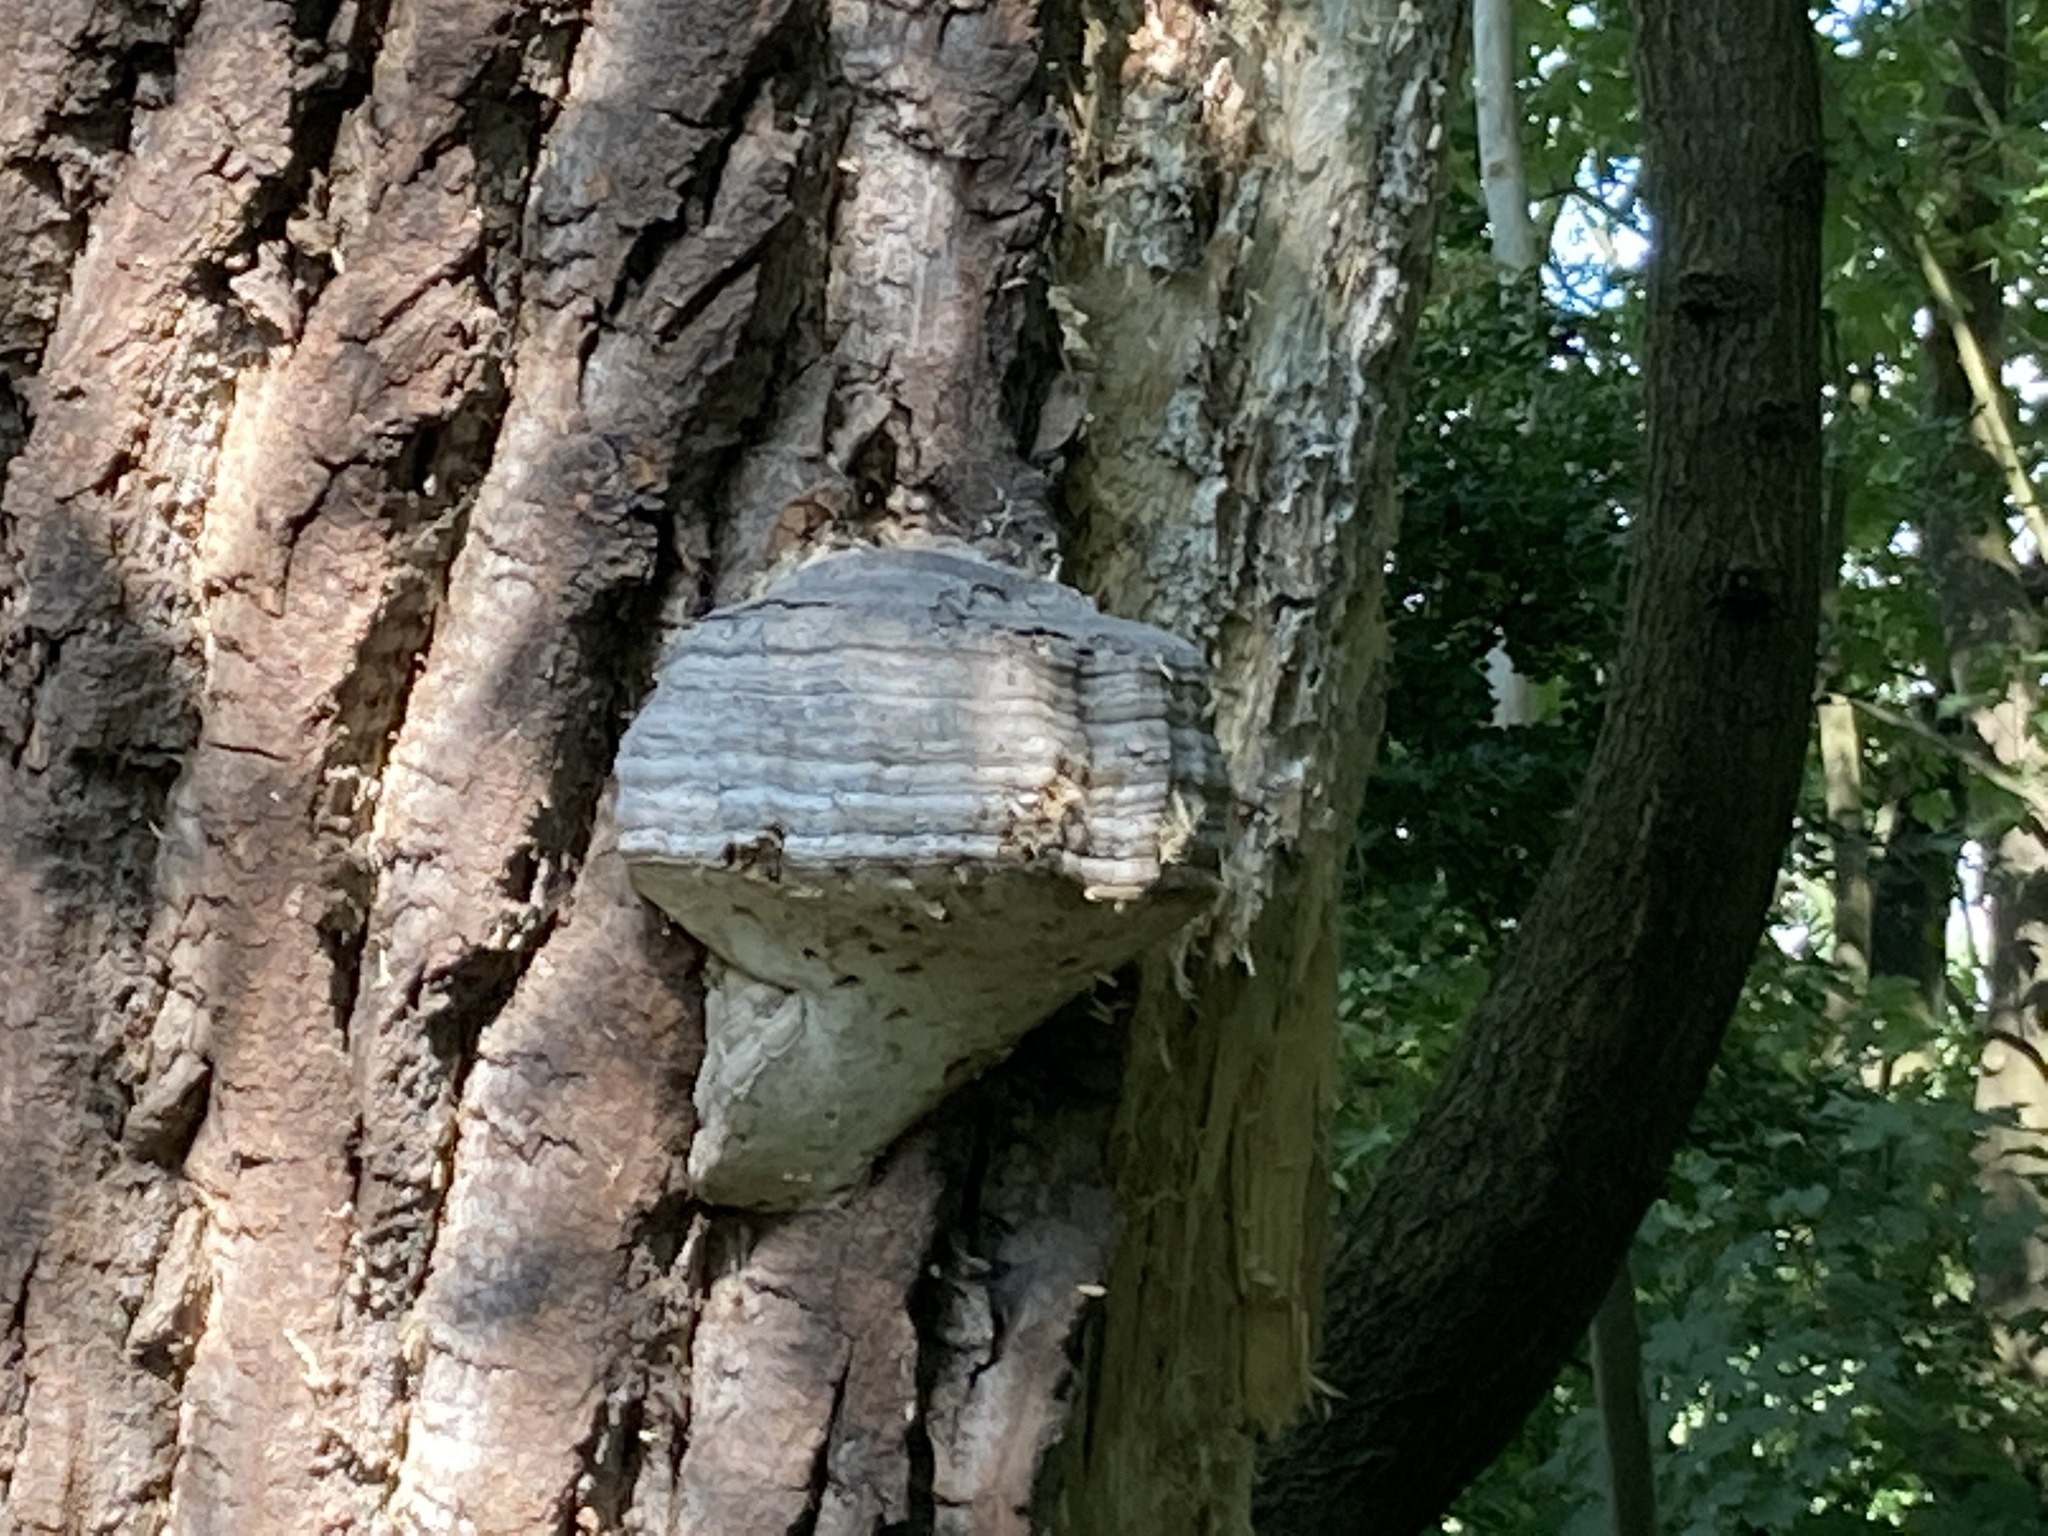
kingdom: Fungi
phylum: Basidiomycota
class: Agaricomycetes
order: Polyporales
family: Polyporaceae
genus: Fomes
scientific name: Fomes fomentarius
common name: Hoof fungus
